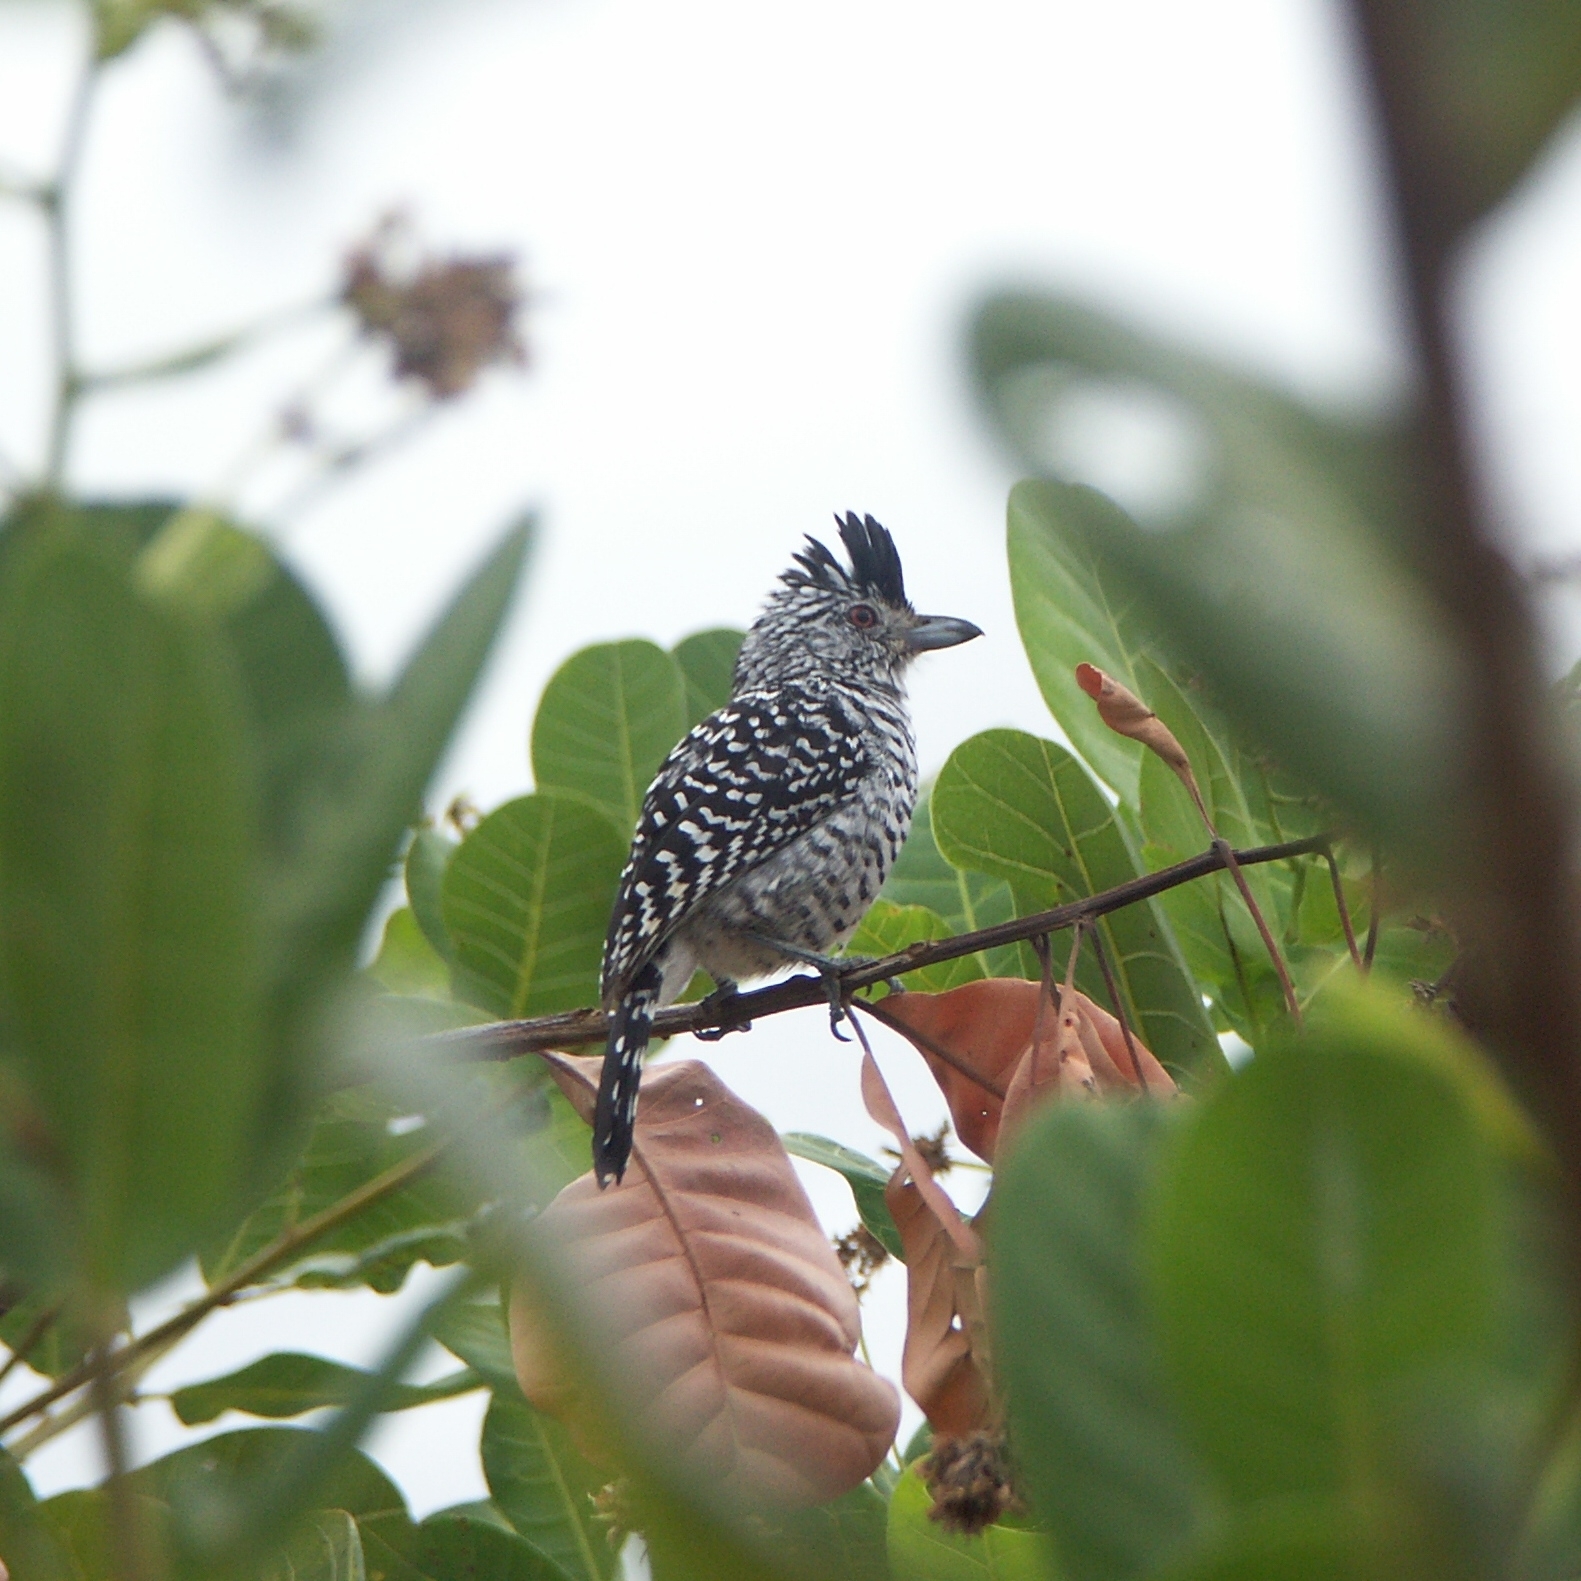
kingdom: Animalia
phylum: Chordata
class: Aves
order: Passeriformes
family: Thamnophilidae
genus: Thamnophilus
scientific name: Thamnophilus doliatus
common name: Barred antshrike
